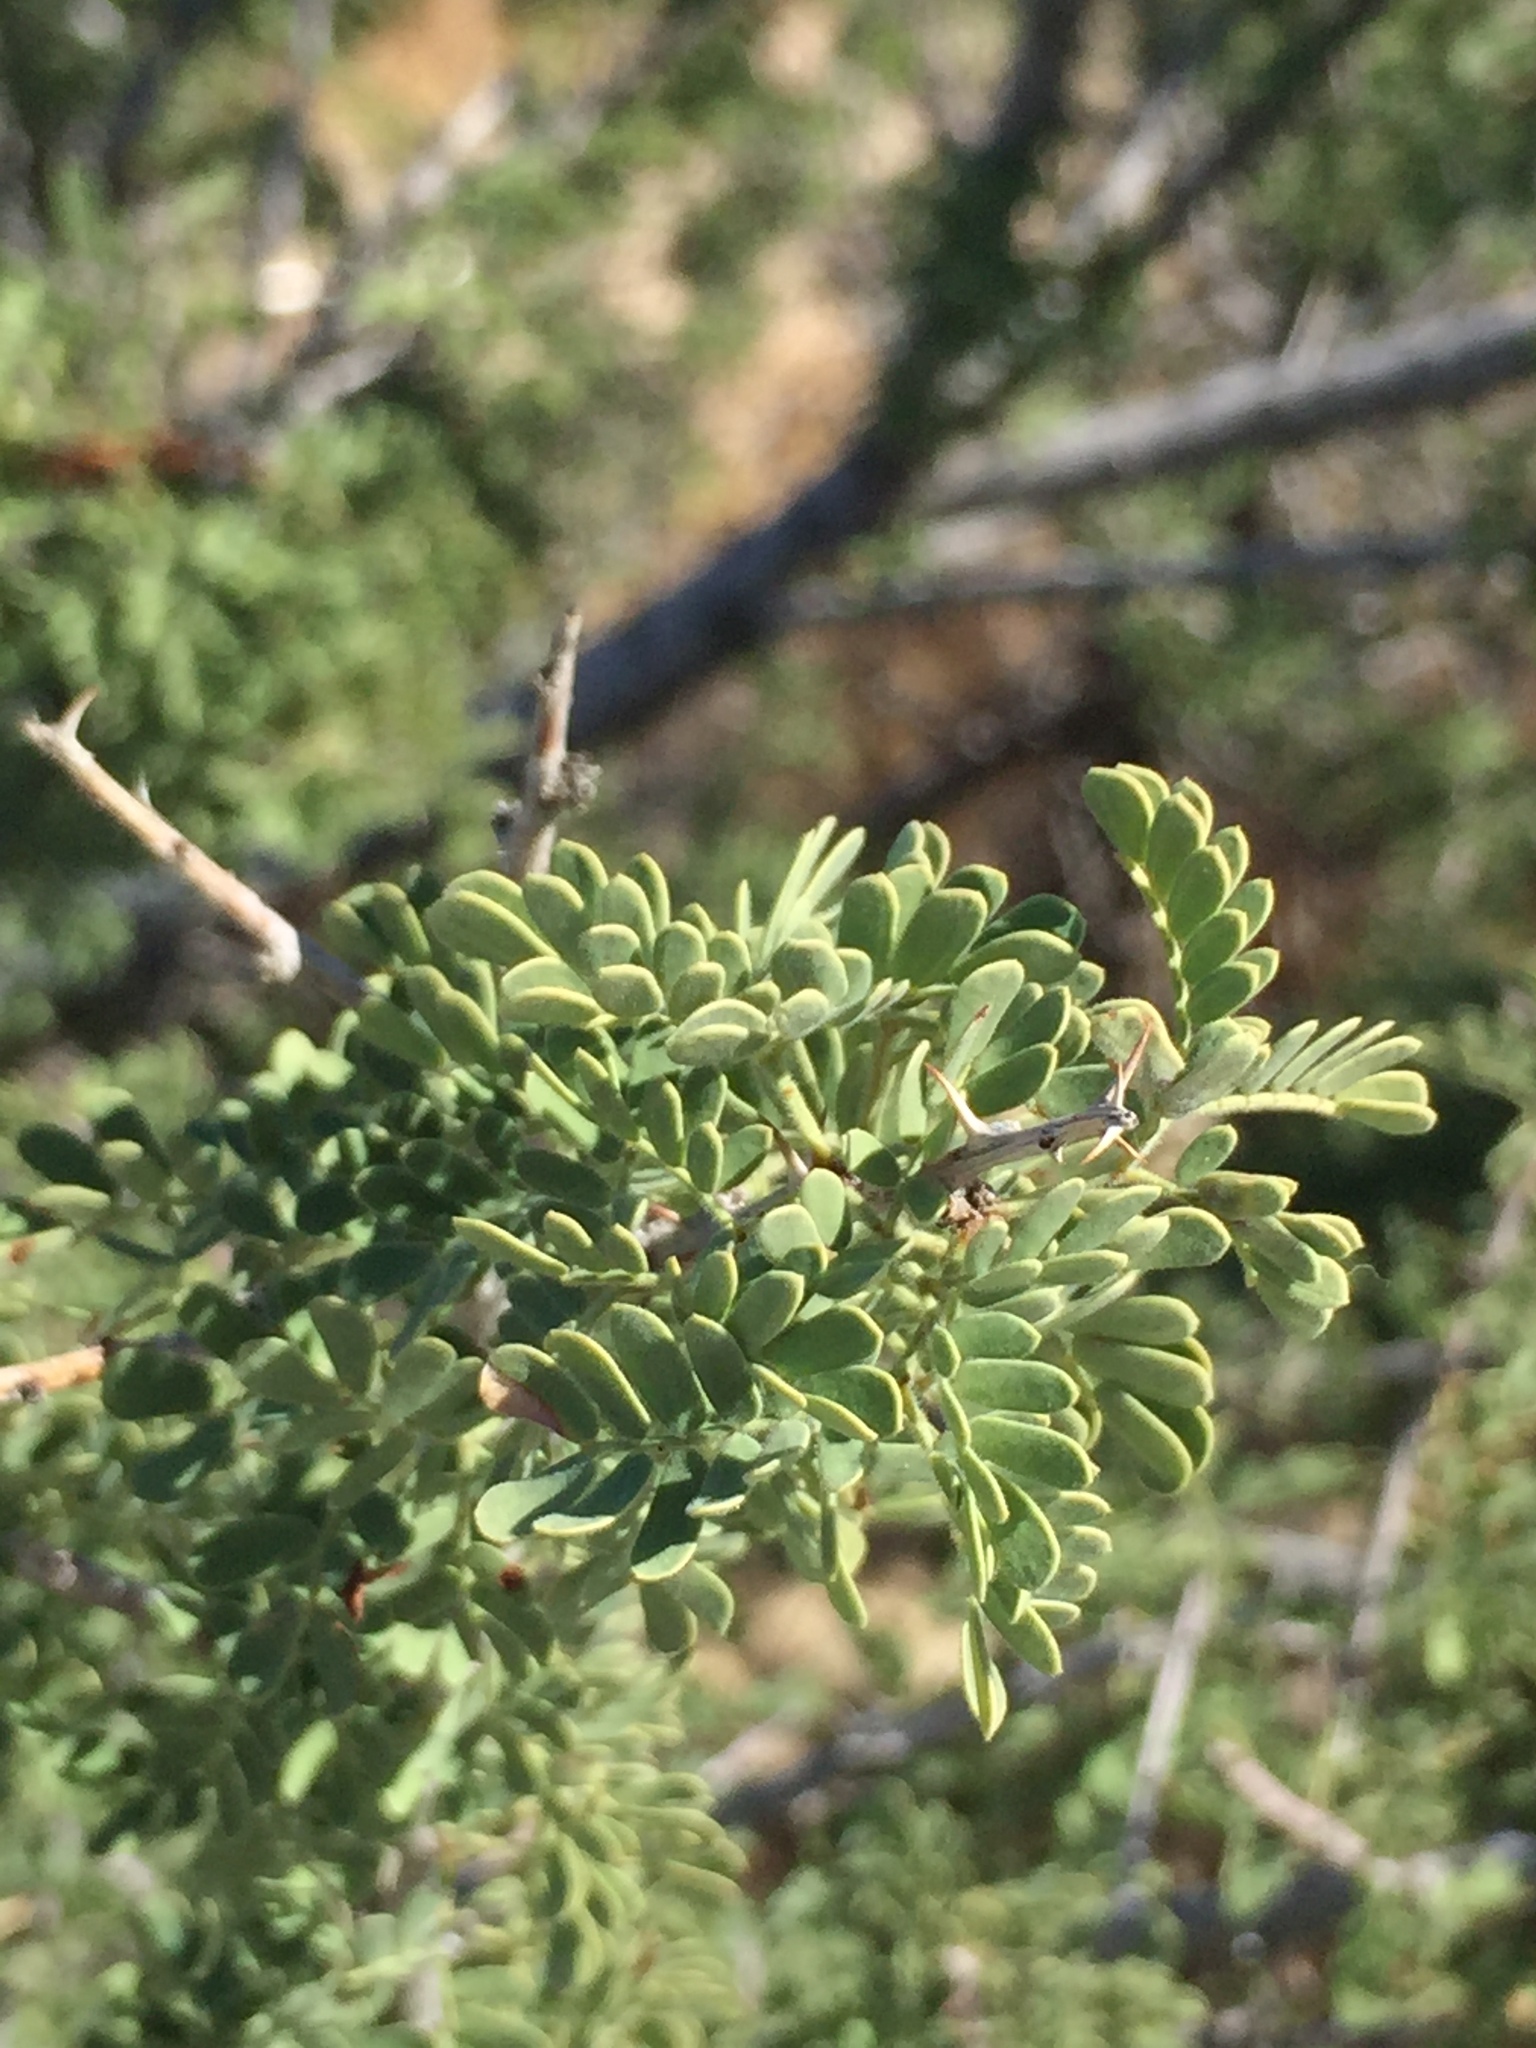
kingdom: Plantae
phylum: Tracheophyta
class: Magnoliopsida
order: Fabales
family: Fabaceae
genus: Senegalia
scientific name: Senegalia greggii
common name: Texas-mimosa
